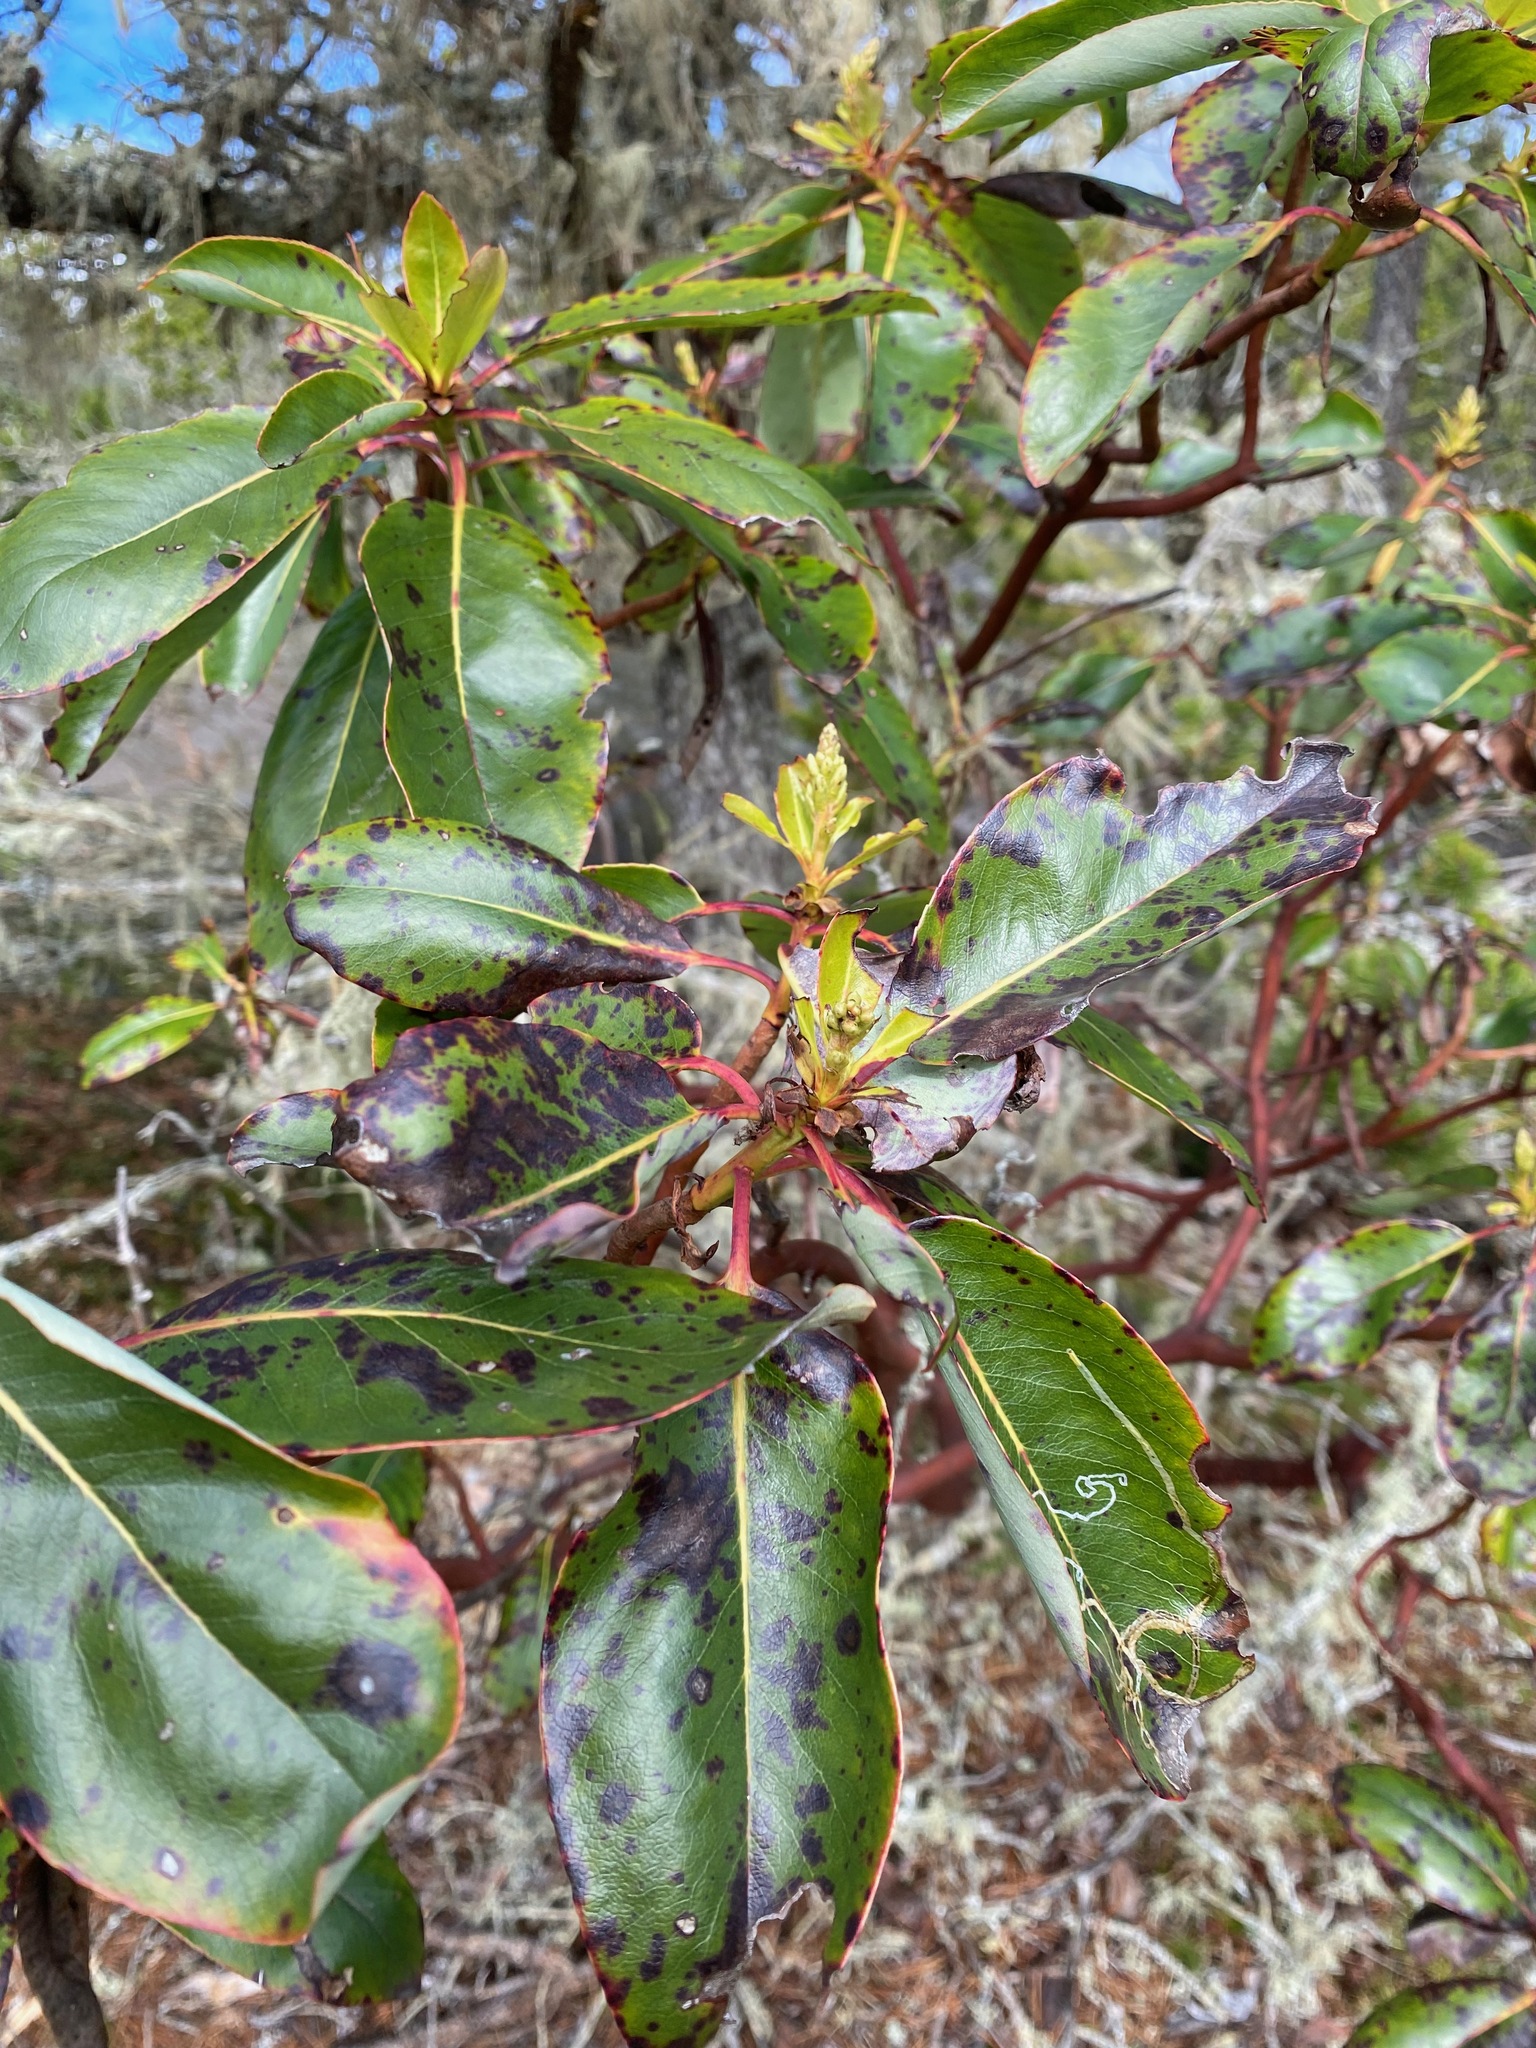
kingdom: Plantae
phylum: Tracheophyta
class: Magnoliopsida
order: Ericales
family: Ericaceae
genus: Arbutus
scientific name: Arbutus menziesii
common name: Pacific madrone
